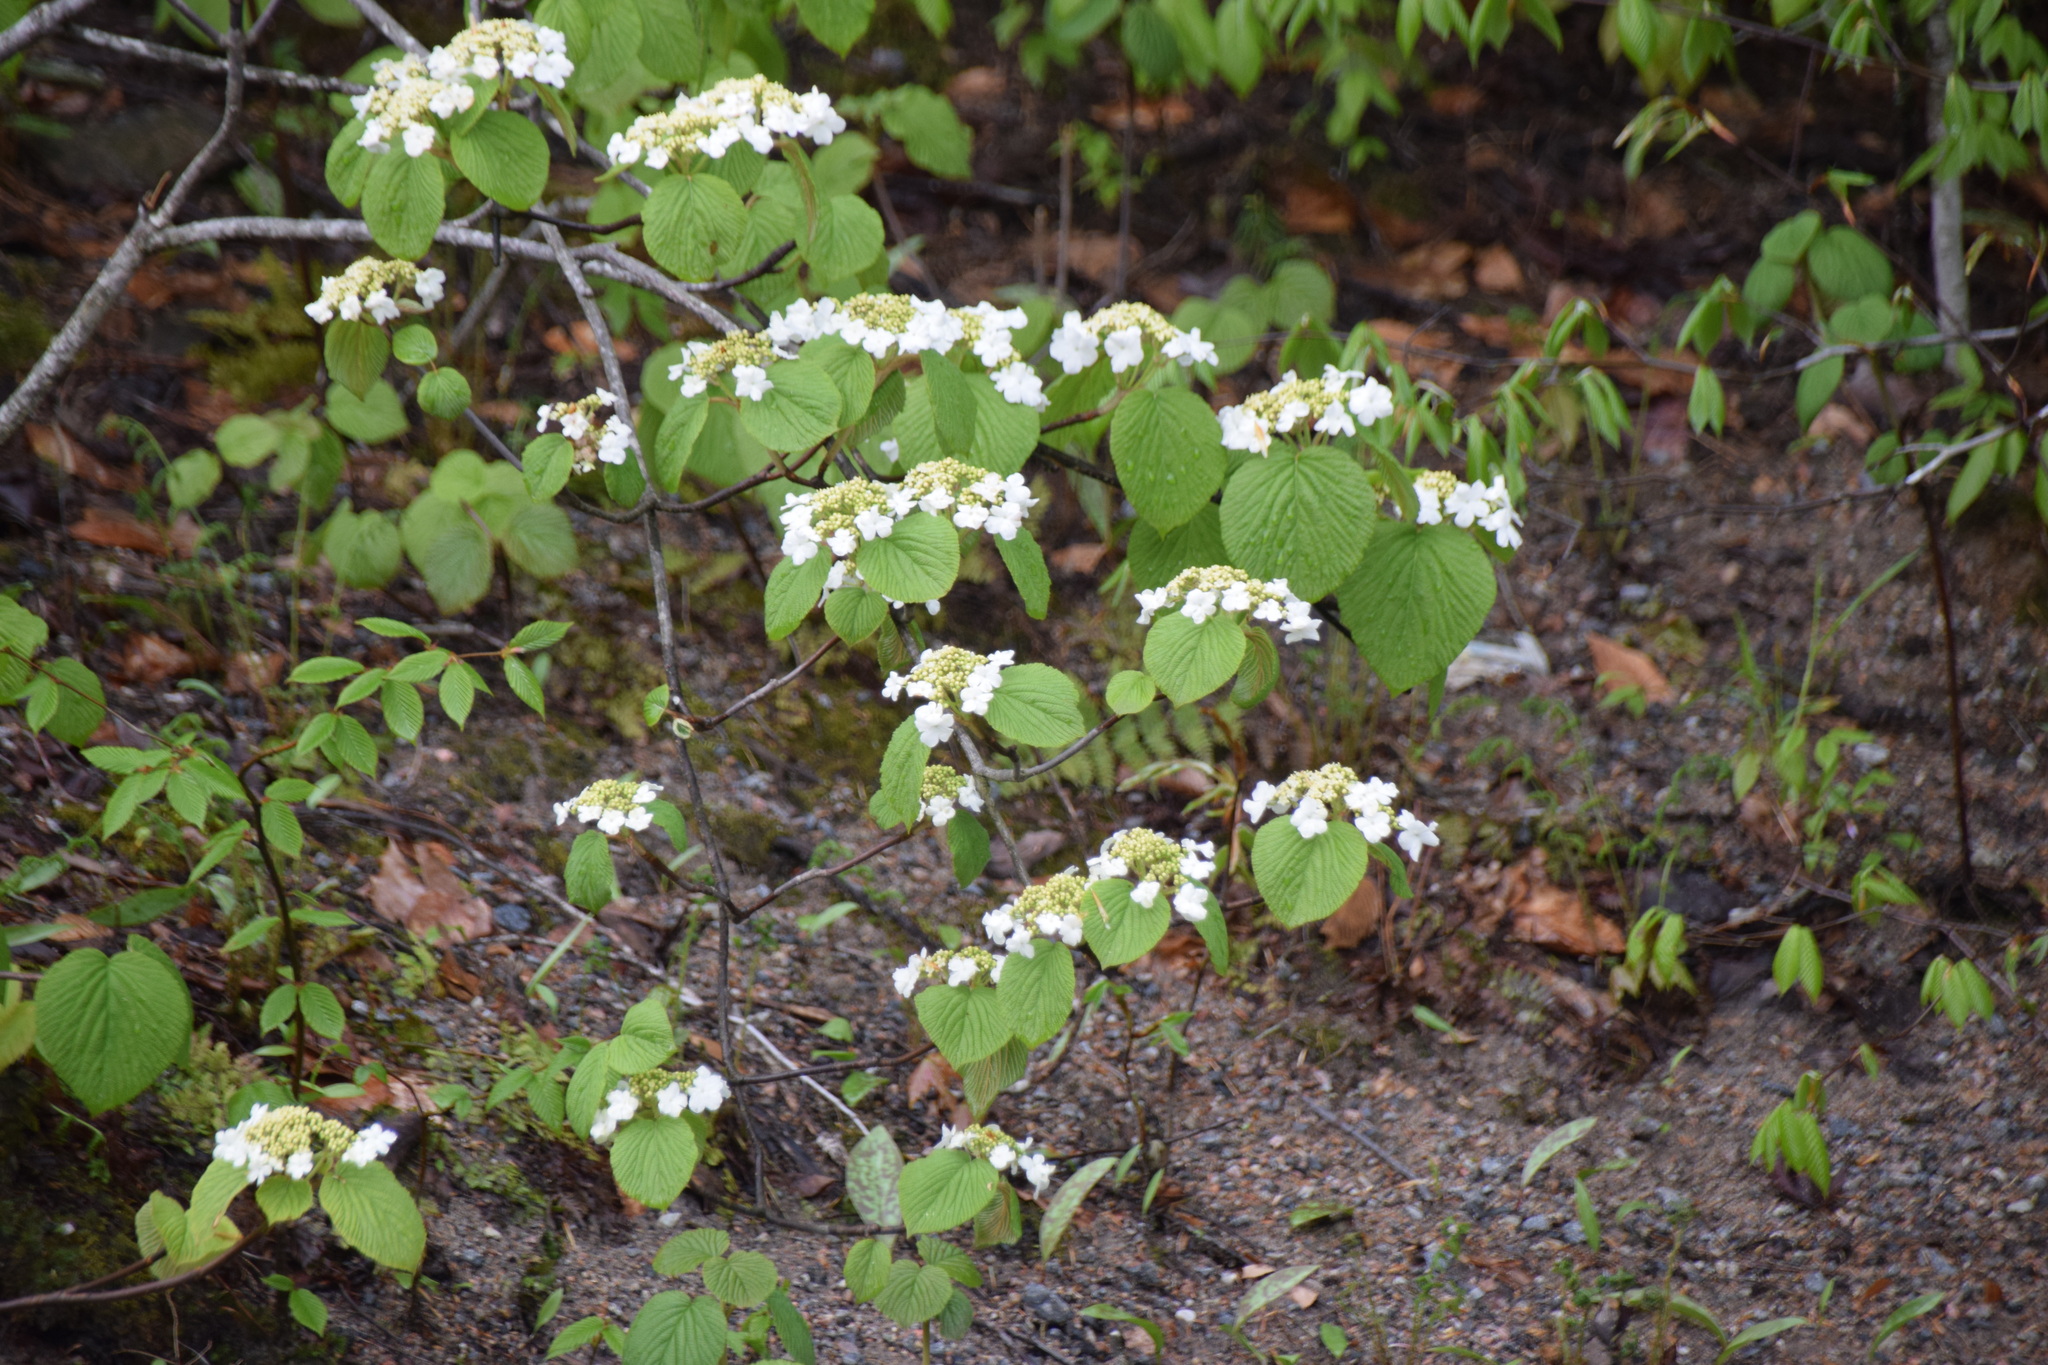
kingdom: Plantae
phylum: Tracheophyta
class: Magnoliopsida
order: Dipsacales
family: Viburnaceae
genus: Viburnum
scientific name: Viburnum lantanoides
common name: Hobblebush
